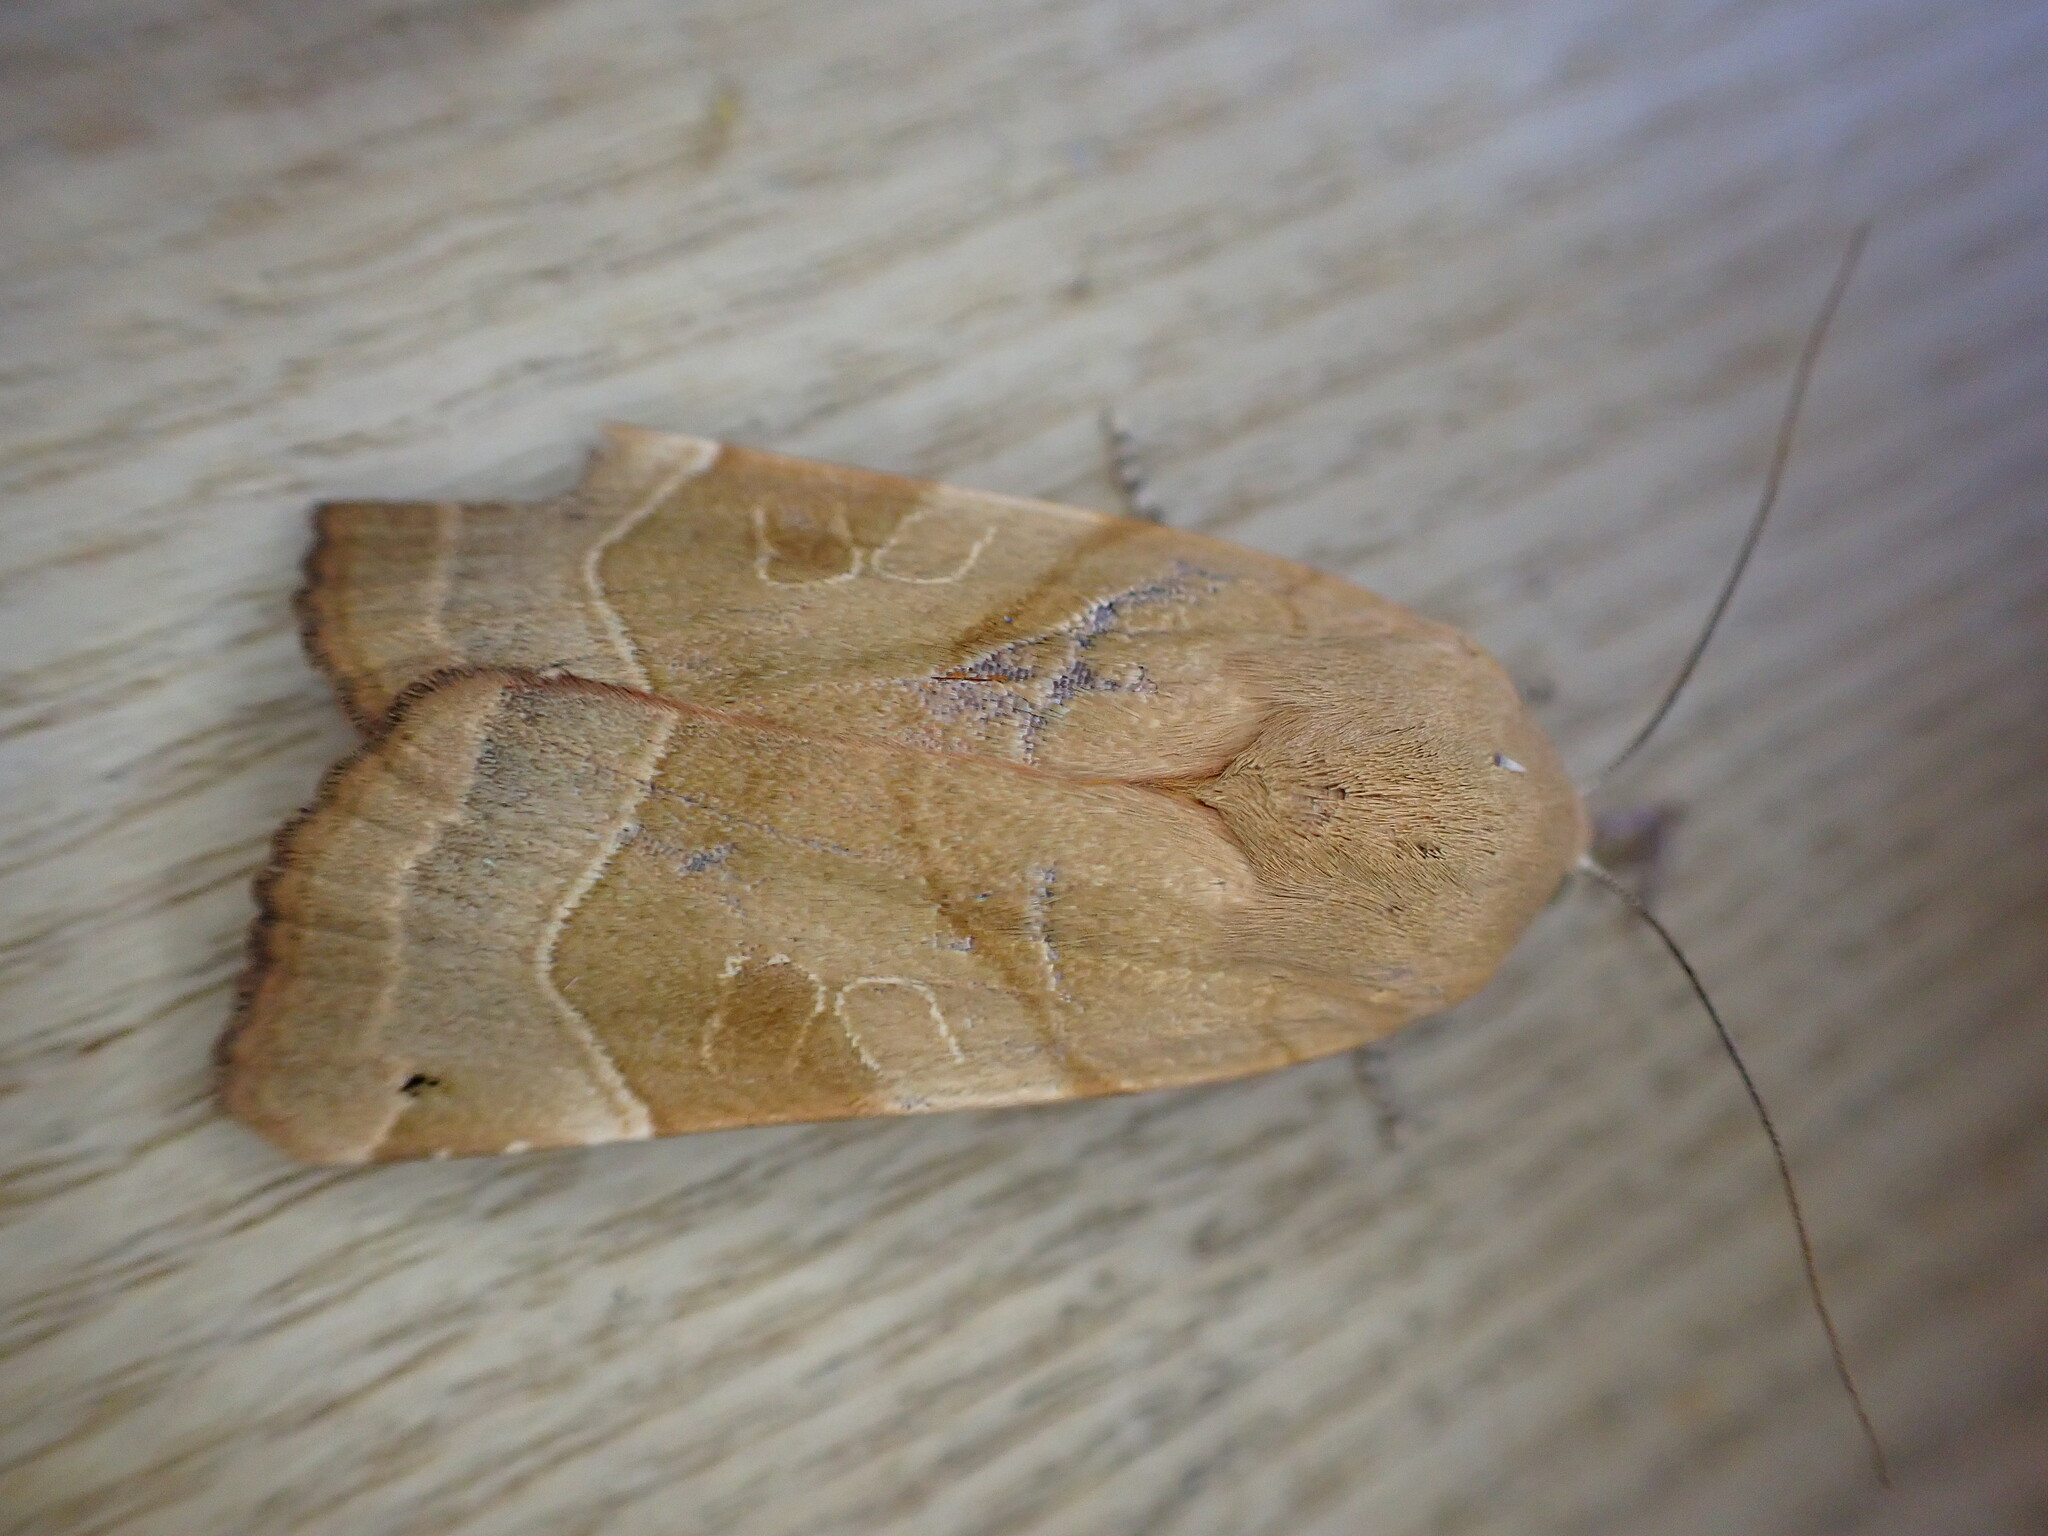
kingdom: Animalia
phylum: Arthropoda
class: Insecta
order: Lepidoptera
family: Noctuidae
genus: Noctua
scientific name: Noctua fimbriata
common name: Broad-bordered yellow underwing
